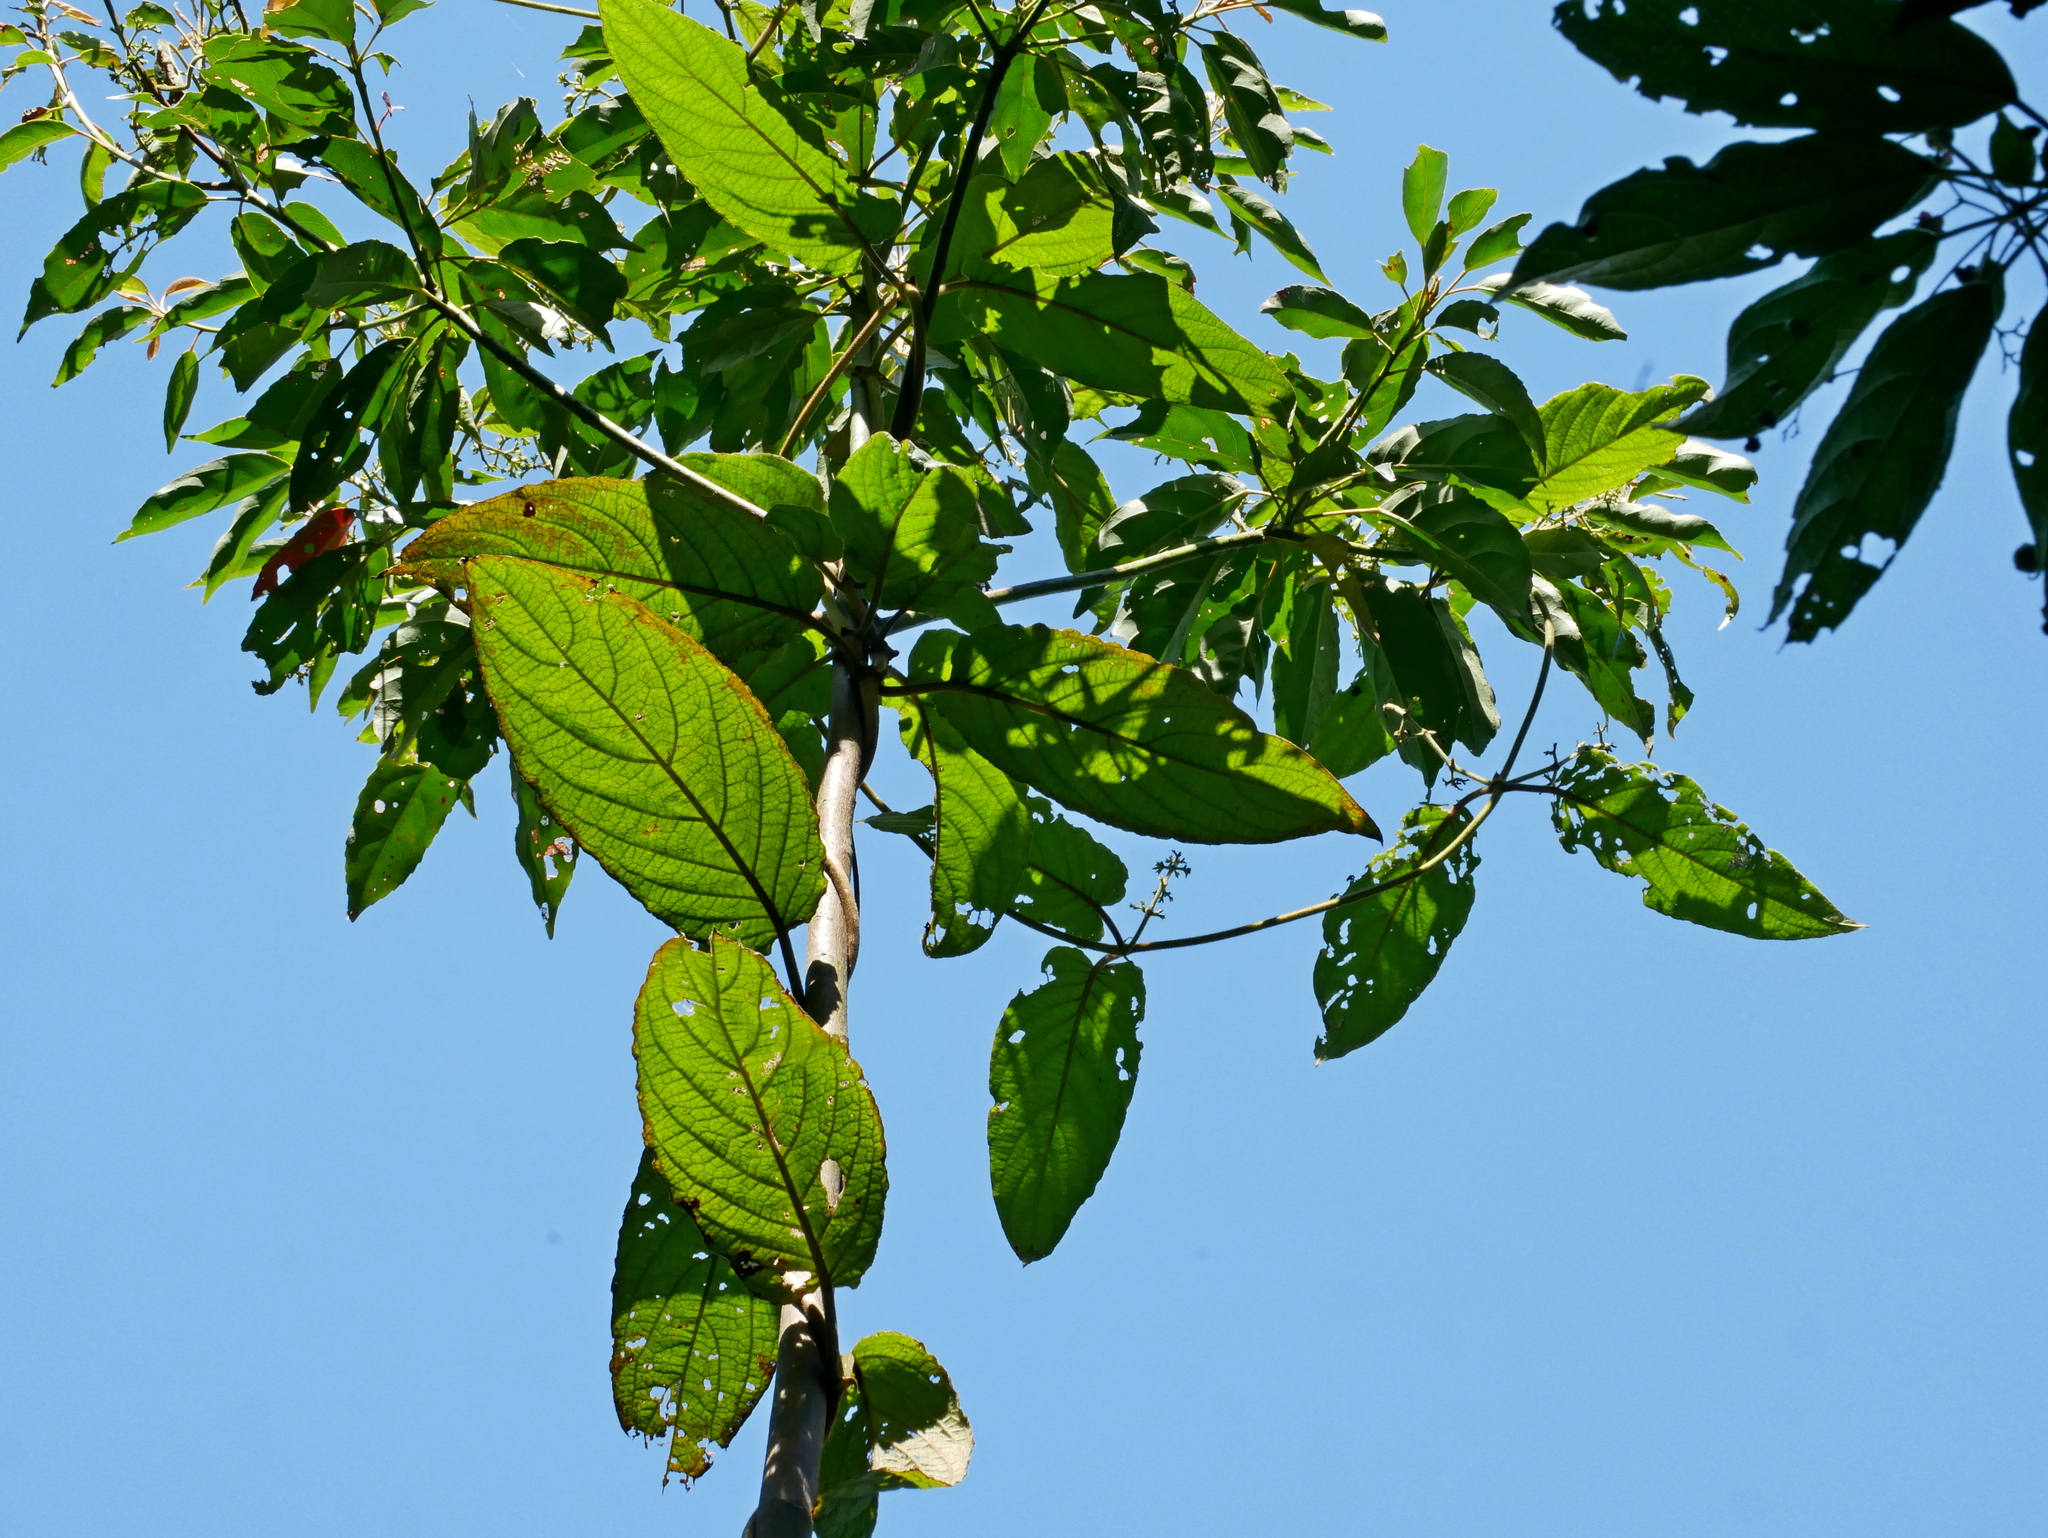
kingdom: Plantae
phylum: Tracheophyta
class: Magnoliopsida
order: Gentianales
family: Rubiaceae
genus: Paederia
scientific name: Paederia cavaleriei
